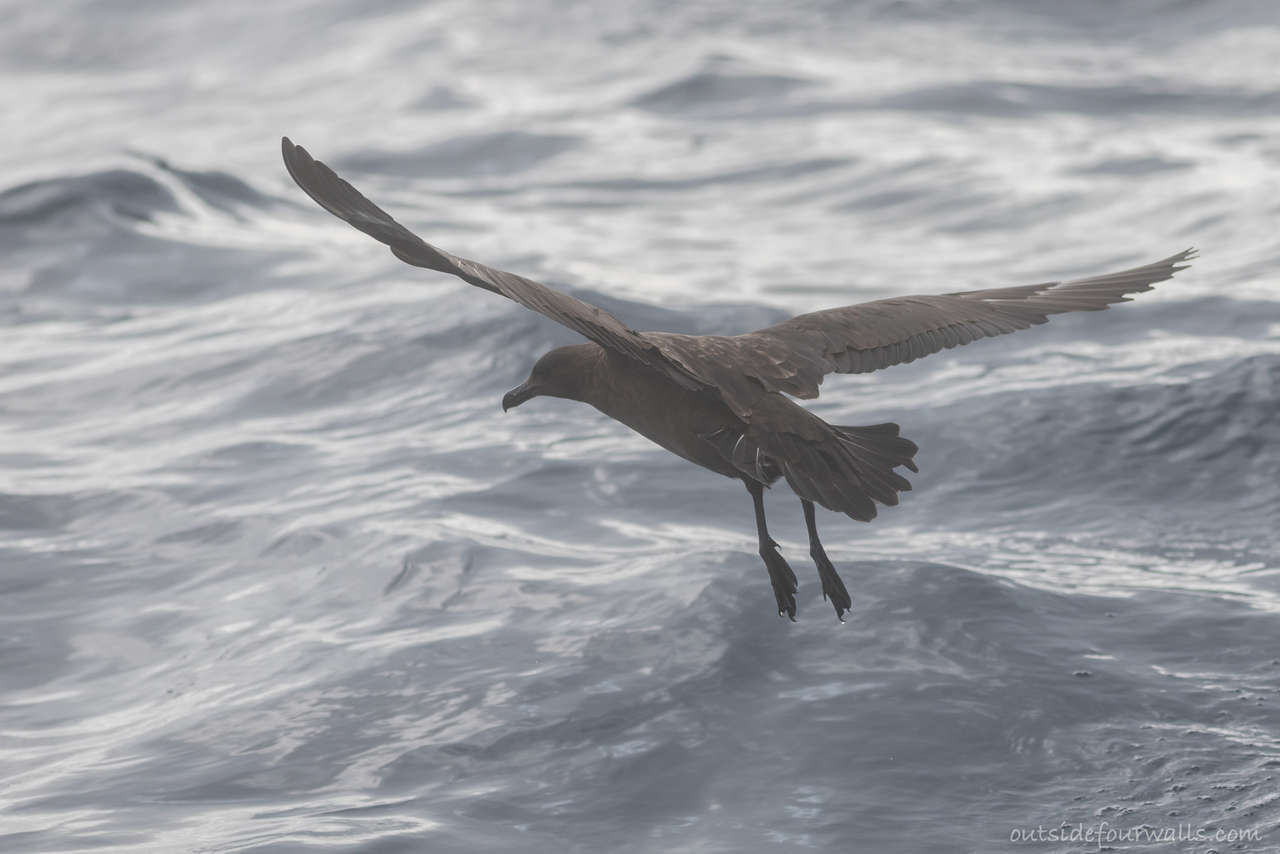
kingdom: Animalia
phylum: Chordata
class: Aves
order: Charadriiformes
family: Stercorariidae
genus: Stercorarius
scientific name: Stercorarius antarcticus
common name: Brown skua
